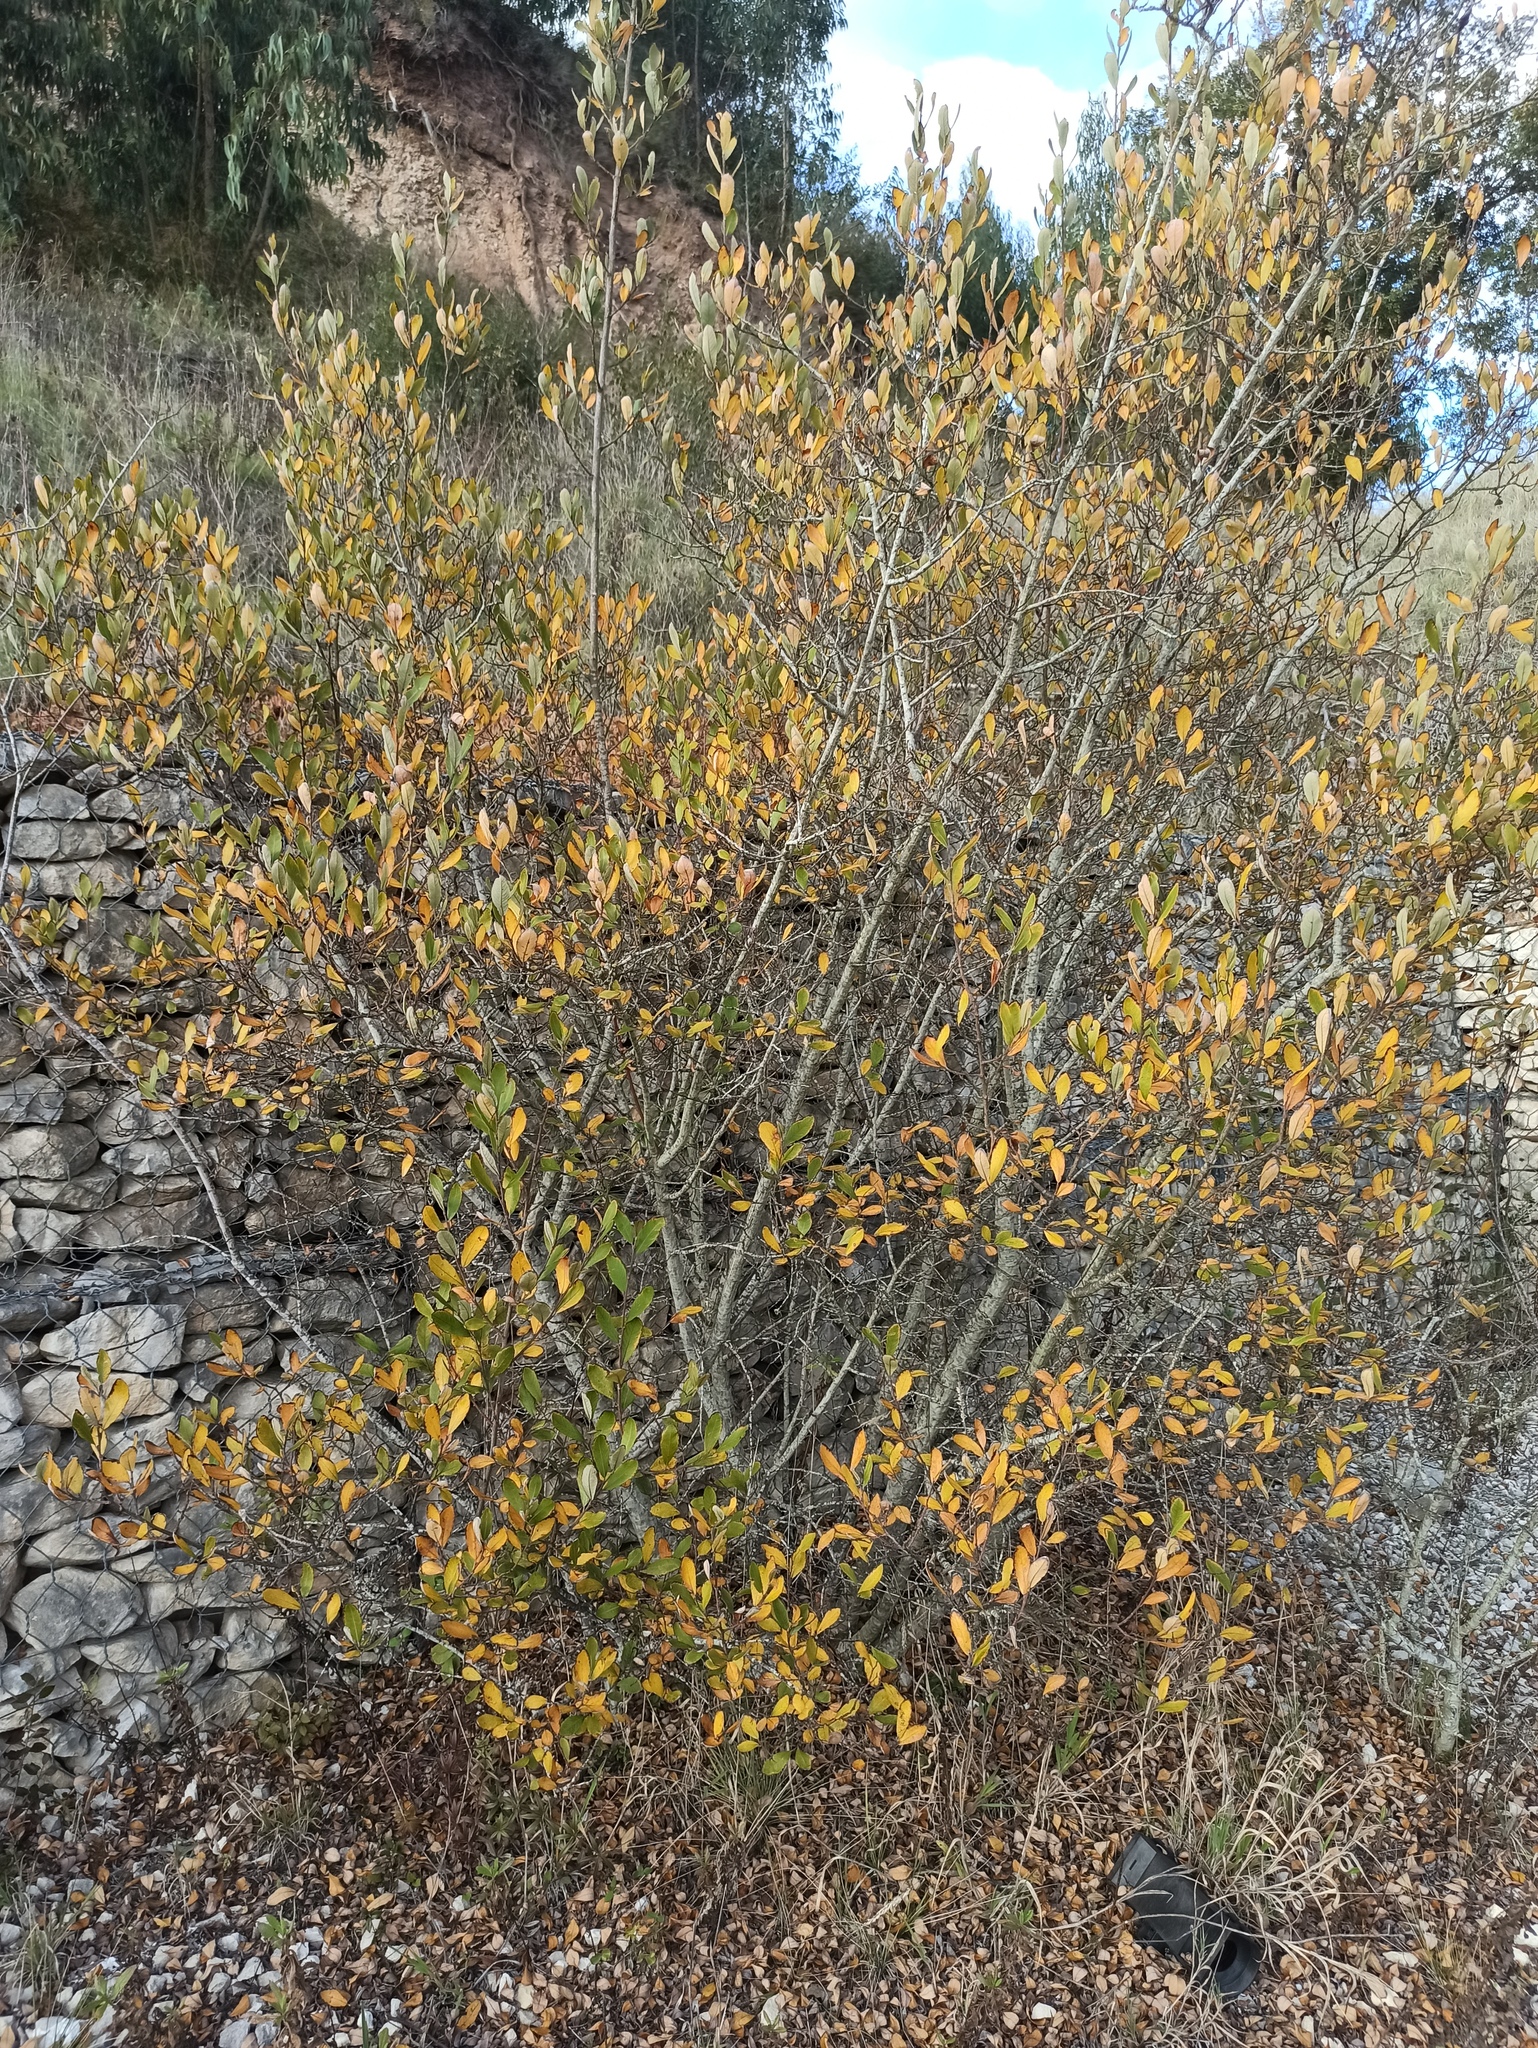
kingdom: Plantae
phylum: Tracheophyta
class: Magnoliopsida
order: Malpighiales
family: Salicaceae
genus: Salix
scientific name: Salix atrocinerea
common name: Rusty willow
